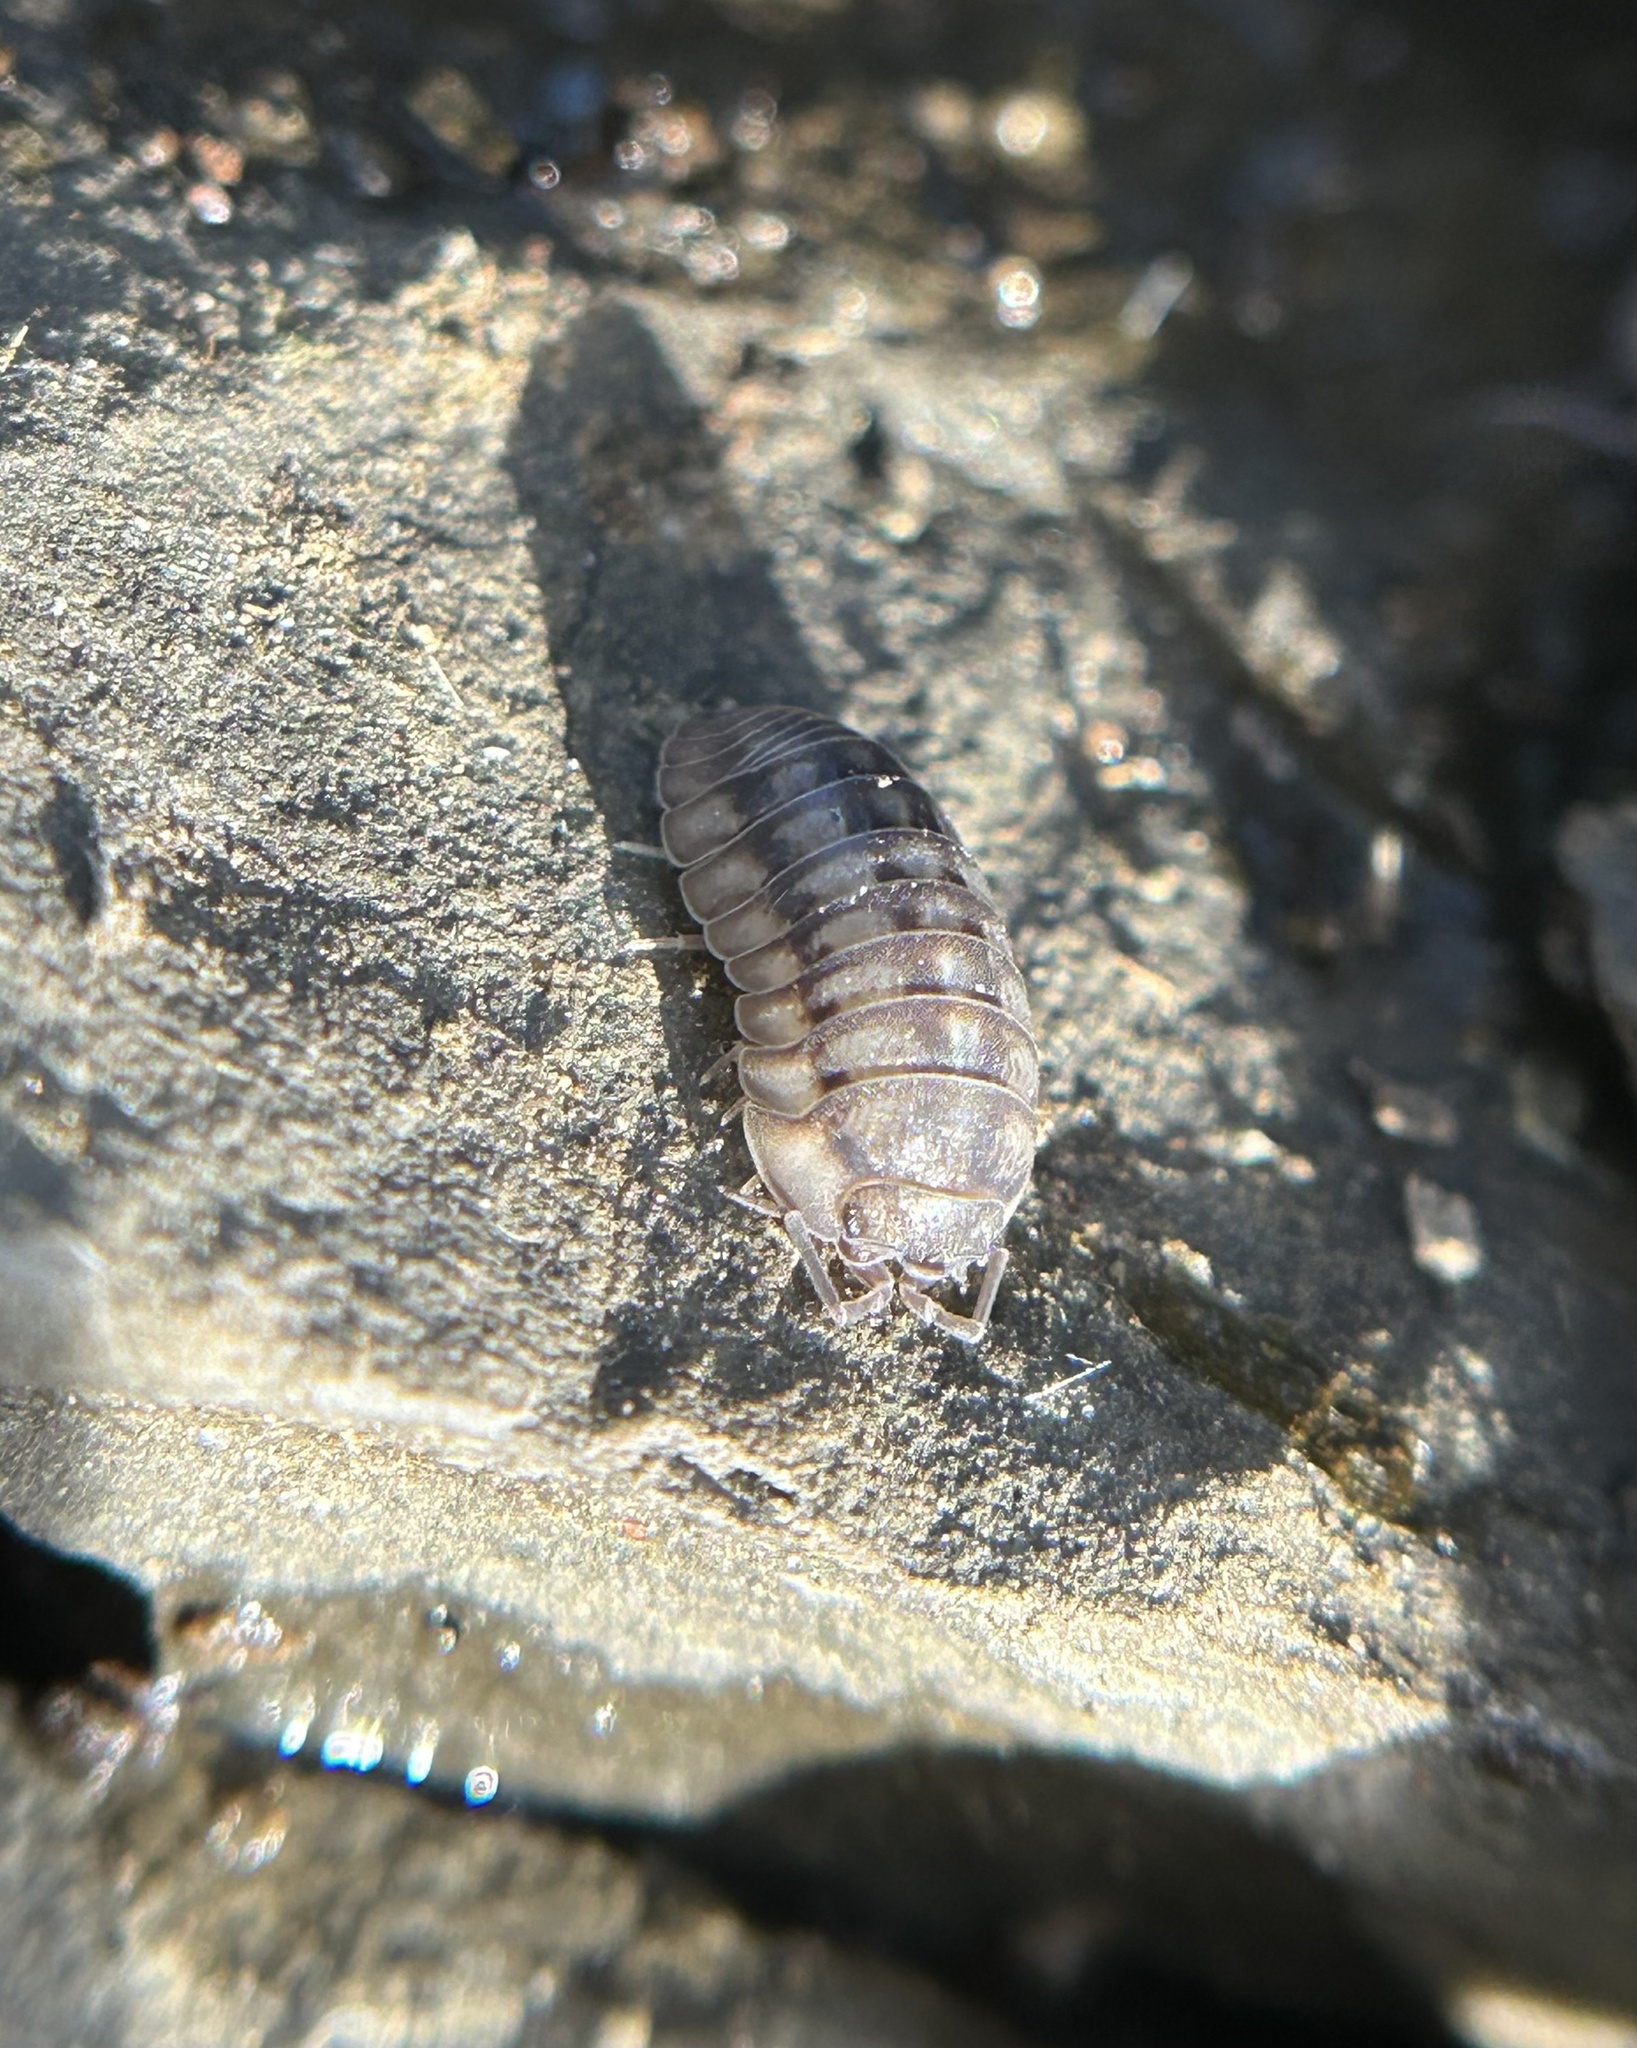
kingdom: Animalia
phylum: Arthropoda
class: Malacostraca
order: Isopoda
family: Armadillidiidae
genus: Armadillidium
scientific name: Armadillidium nasatum
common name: Isopod
